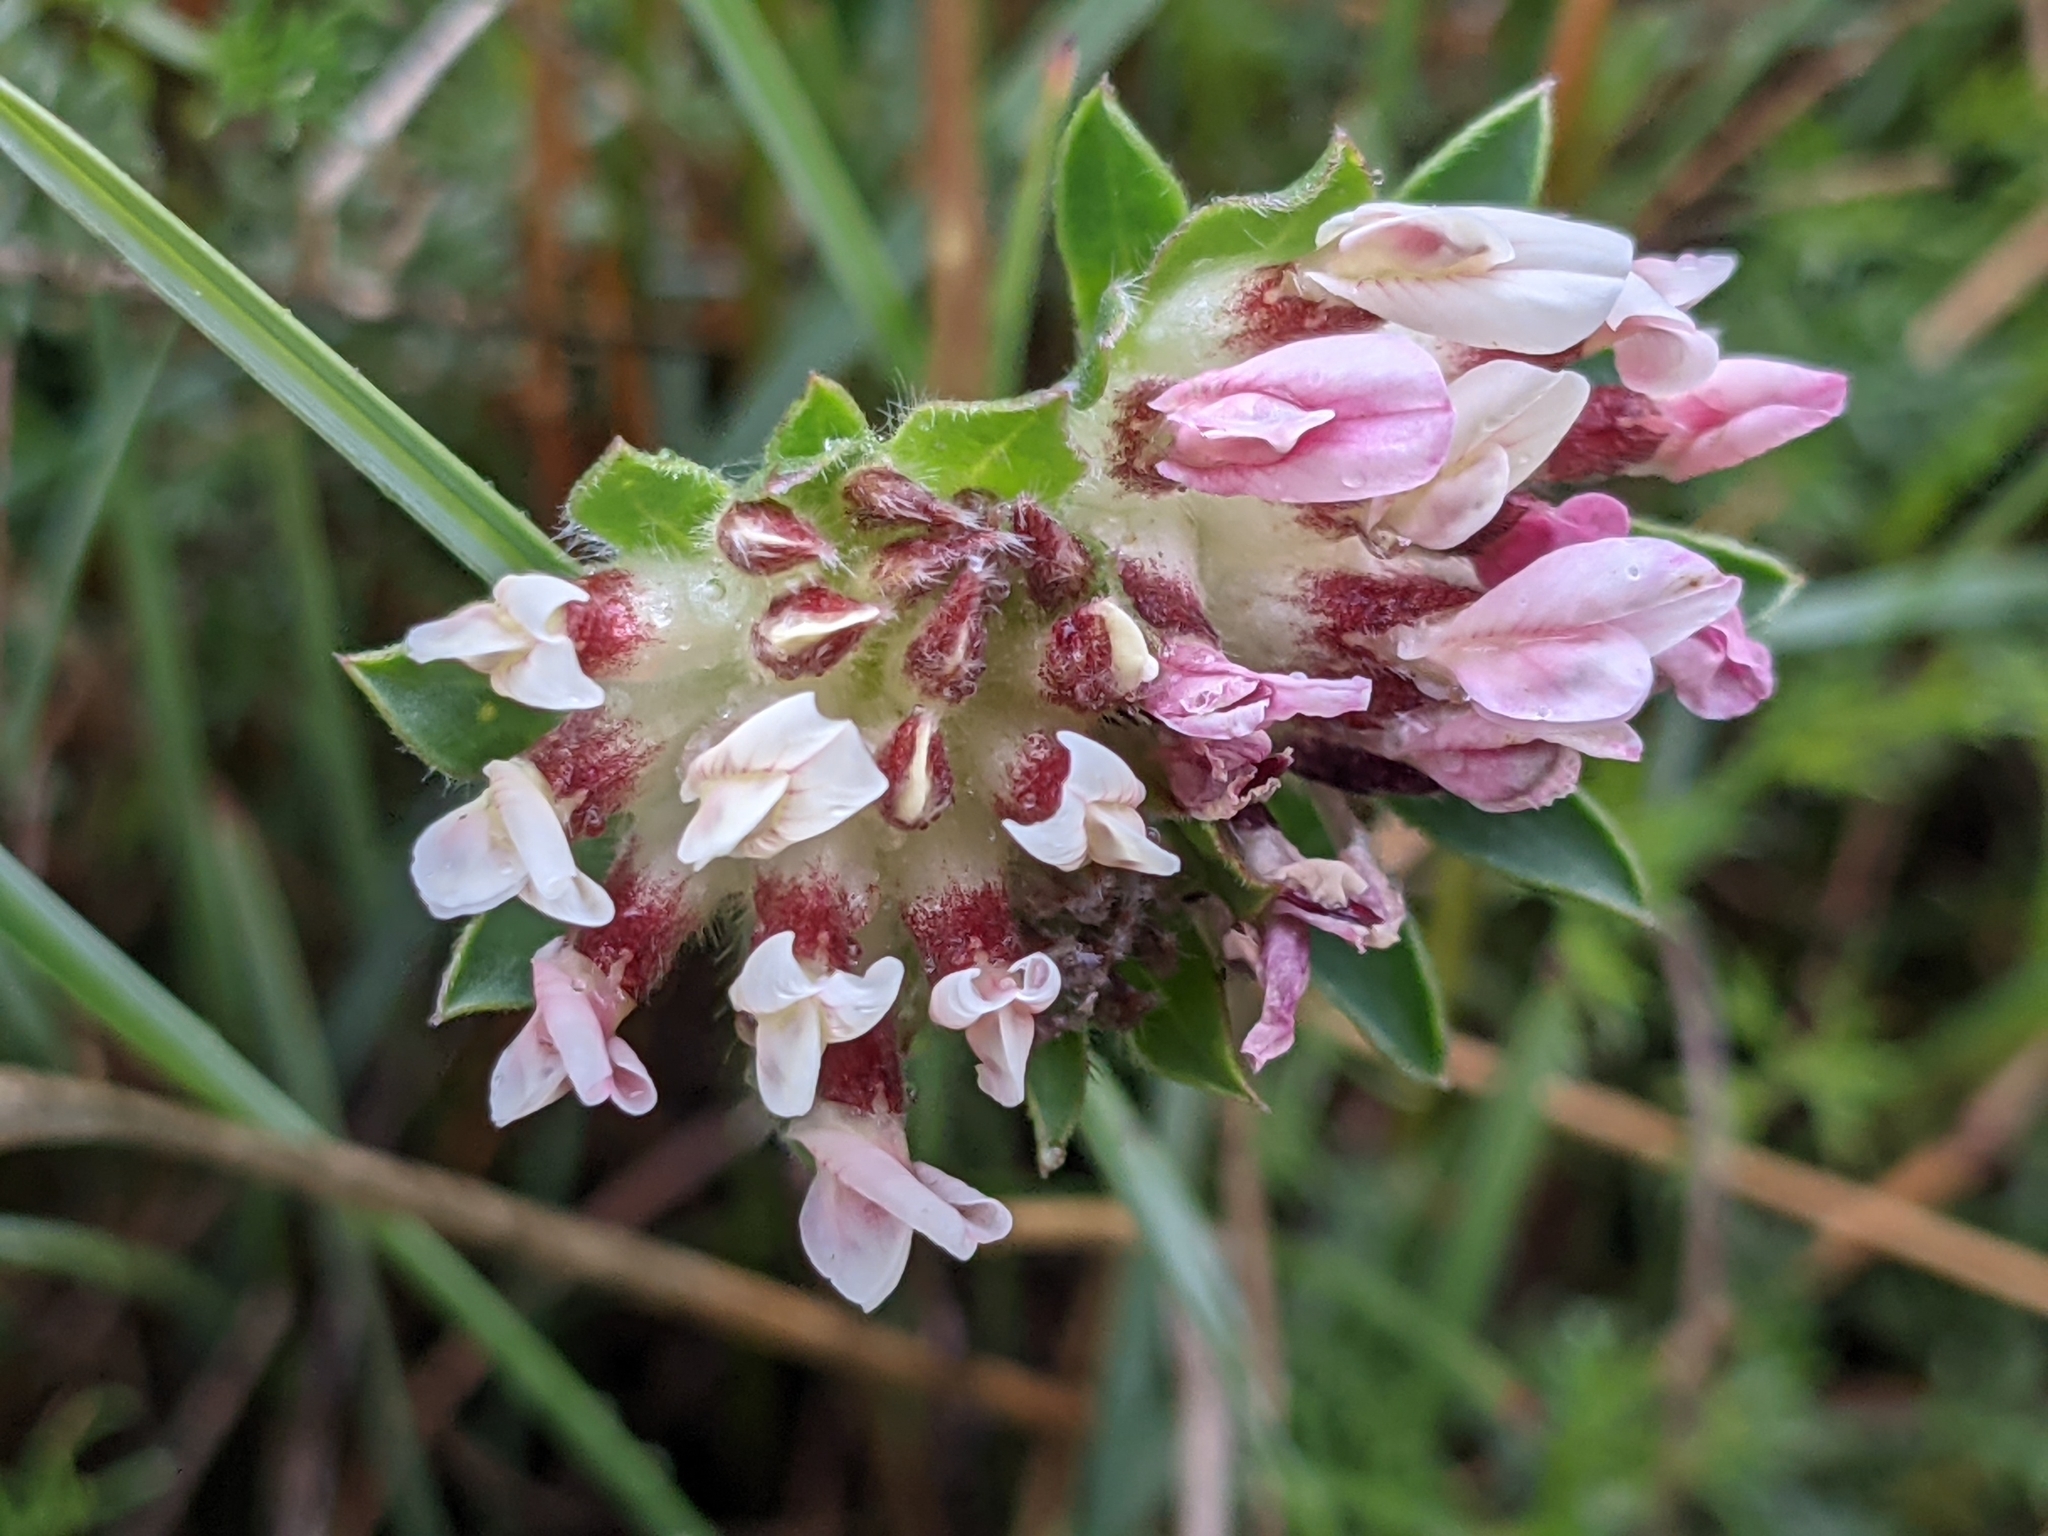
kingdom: Plantae
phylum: Tracheophyta
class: Magnoliopsida
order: Fabales
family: Fabaceae
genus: Anthyllis
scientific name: Anthyllis vulneraria
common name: Kidney vetch
